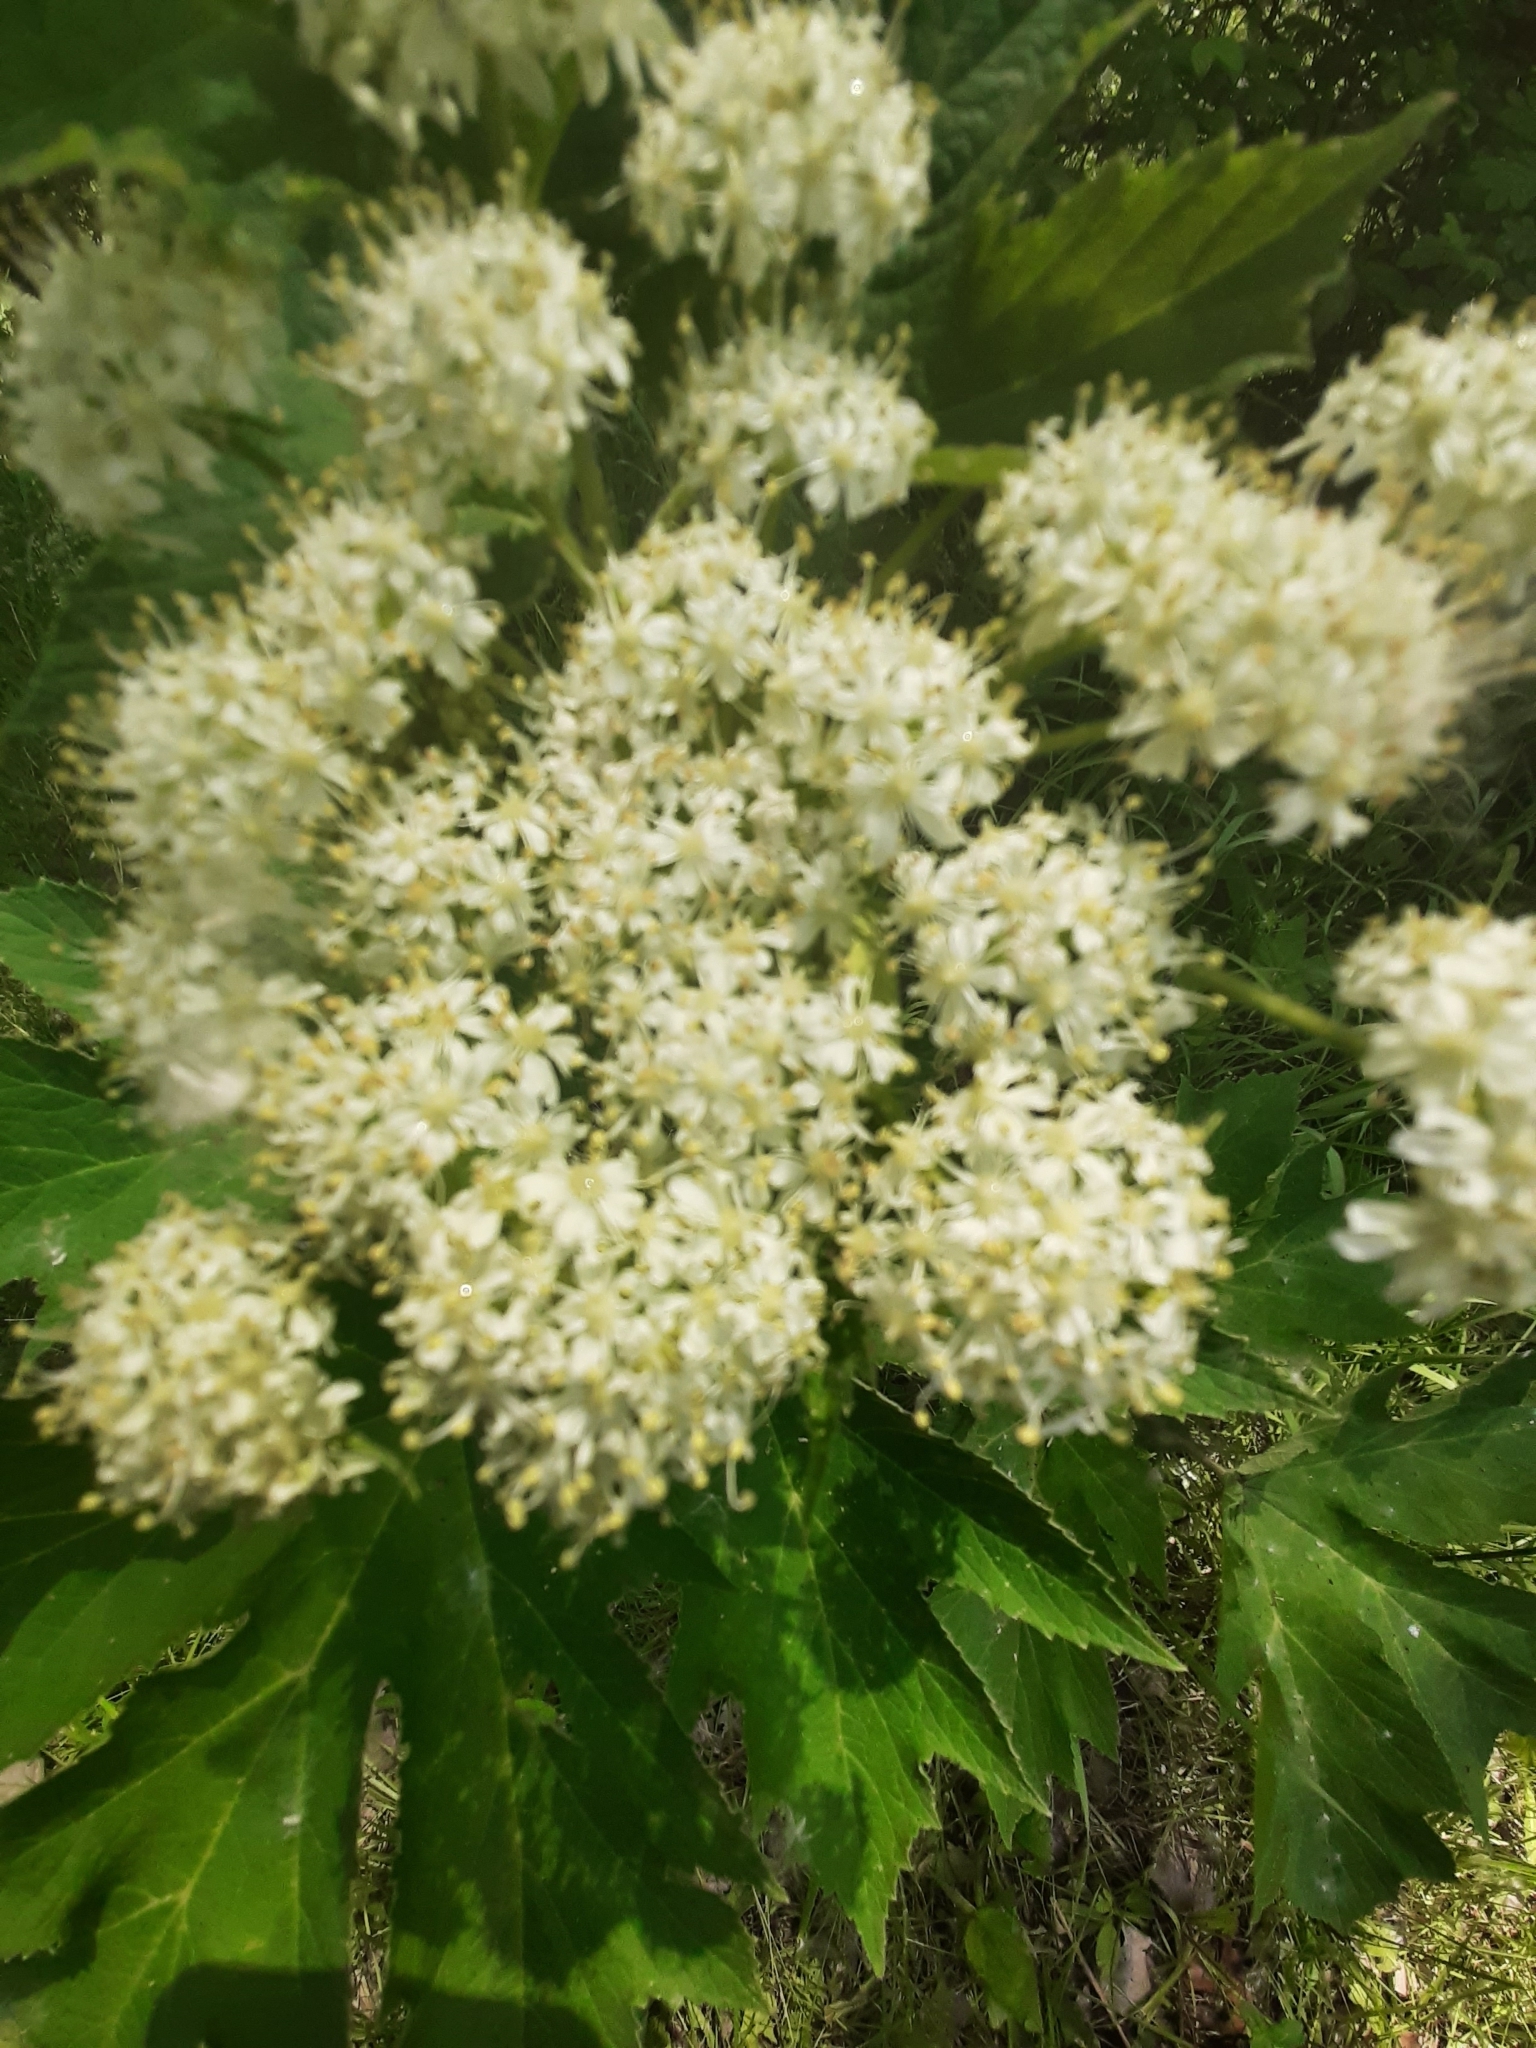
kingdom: Plantae
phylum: Tracheophyta
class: Magnoliopsida
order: Apiales
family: Apiaceae
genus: Heracleum
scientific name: Heracleum maximum
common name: American cow parsnip
